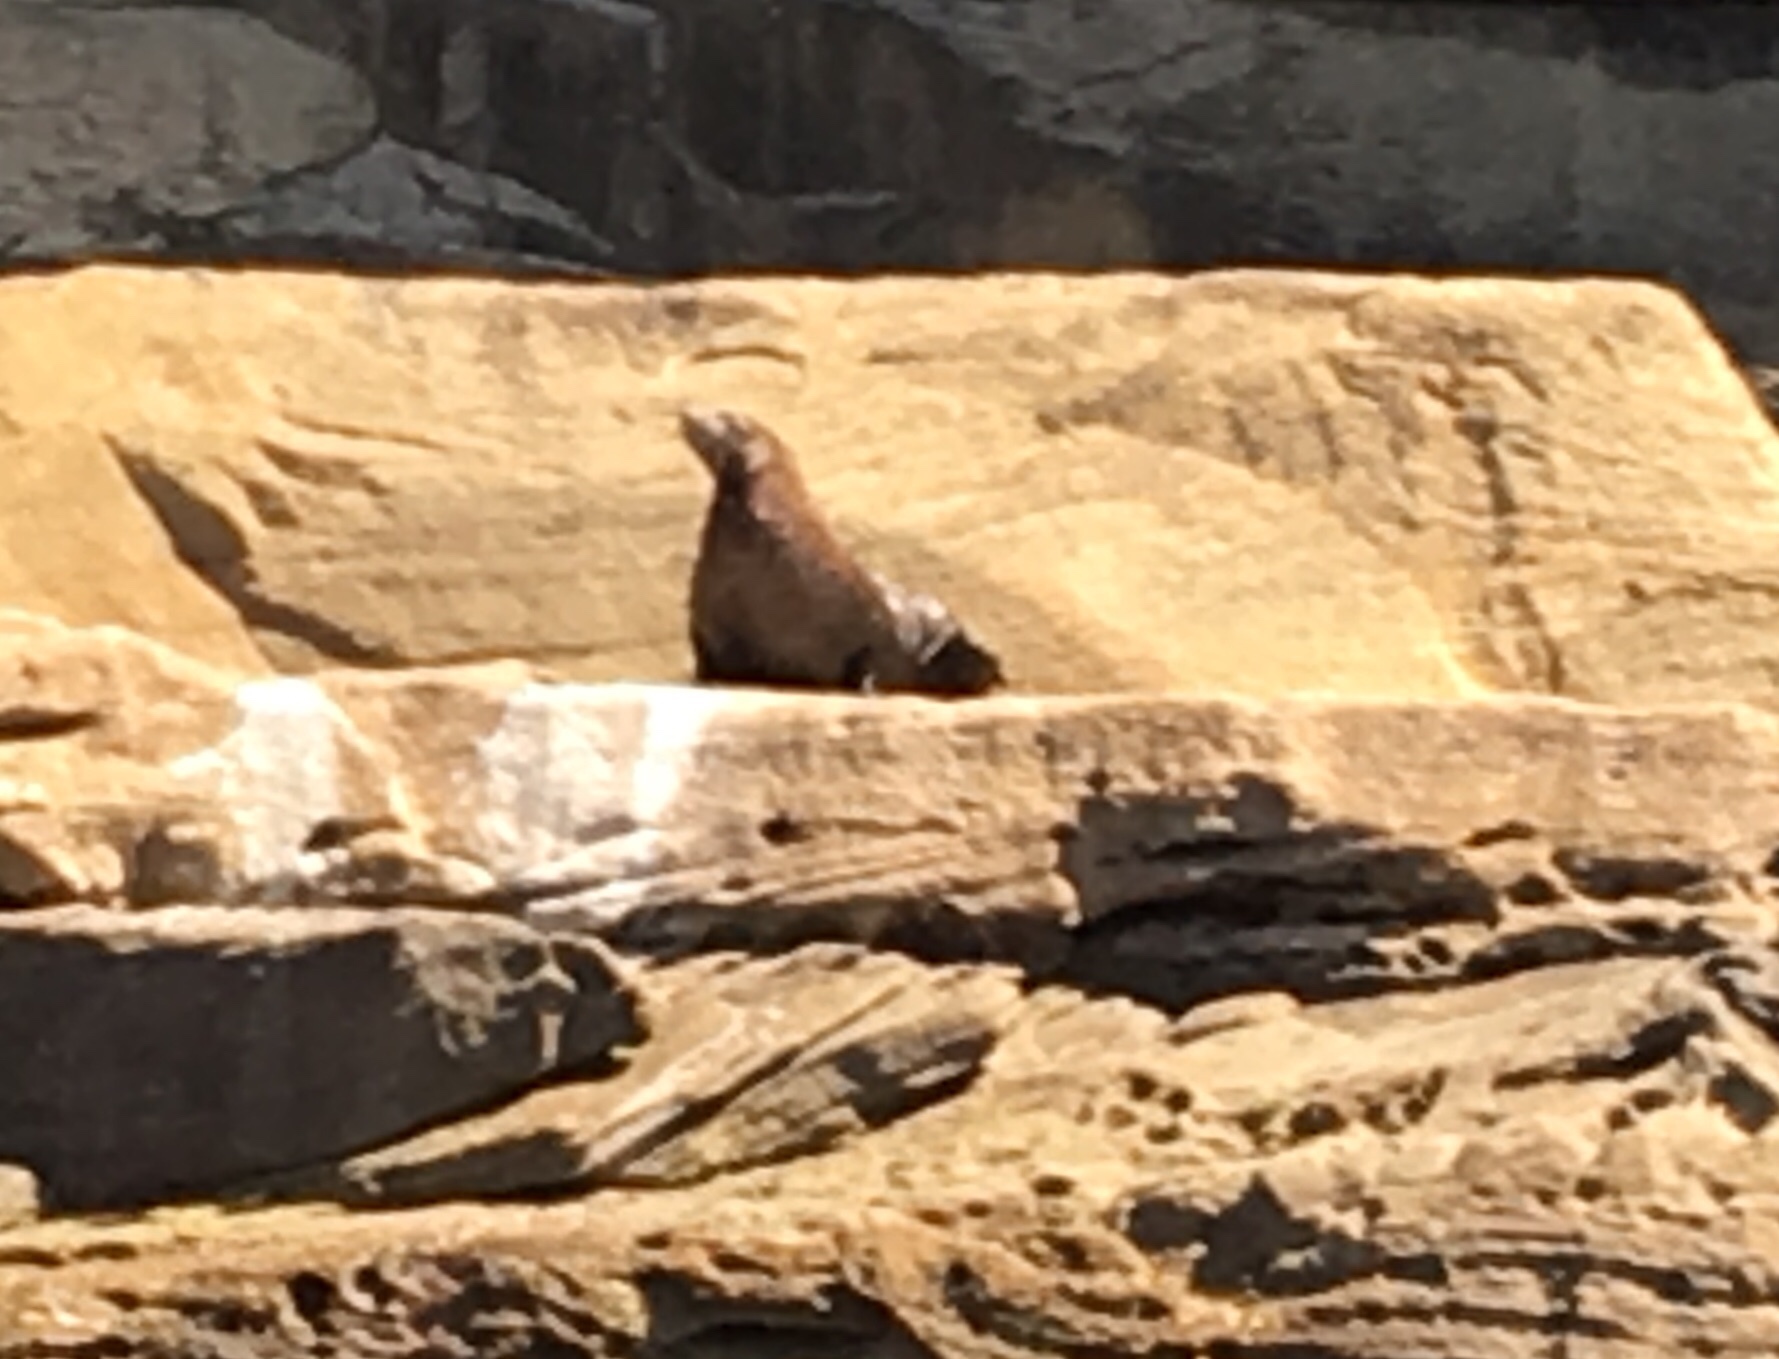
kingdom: Animalia
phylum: Chordata
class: Mammalia
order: Carnivora
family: Otariidae
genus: Arctocephalus
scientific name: Arctocephalus forsteri
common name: New zealand fur seal
